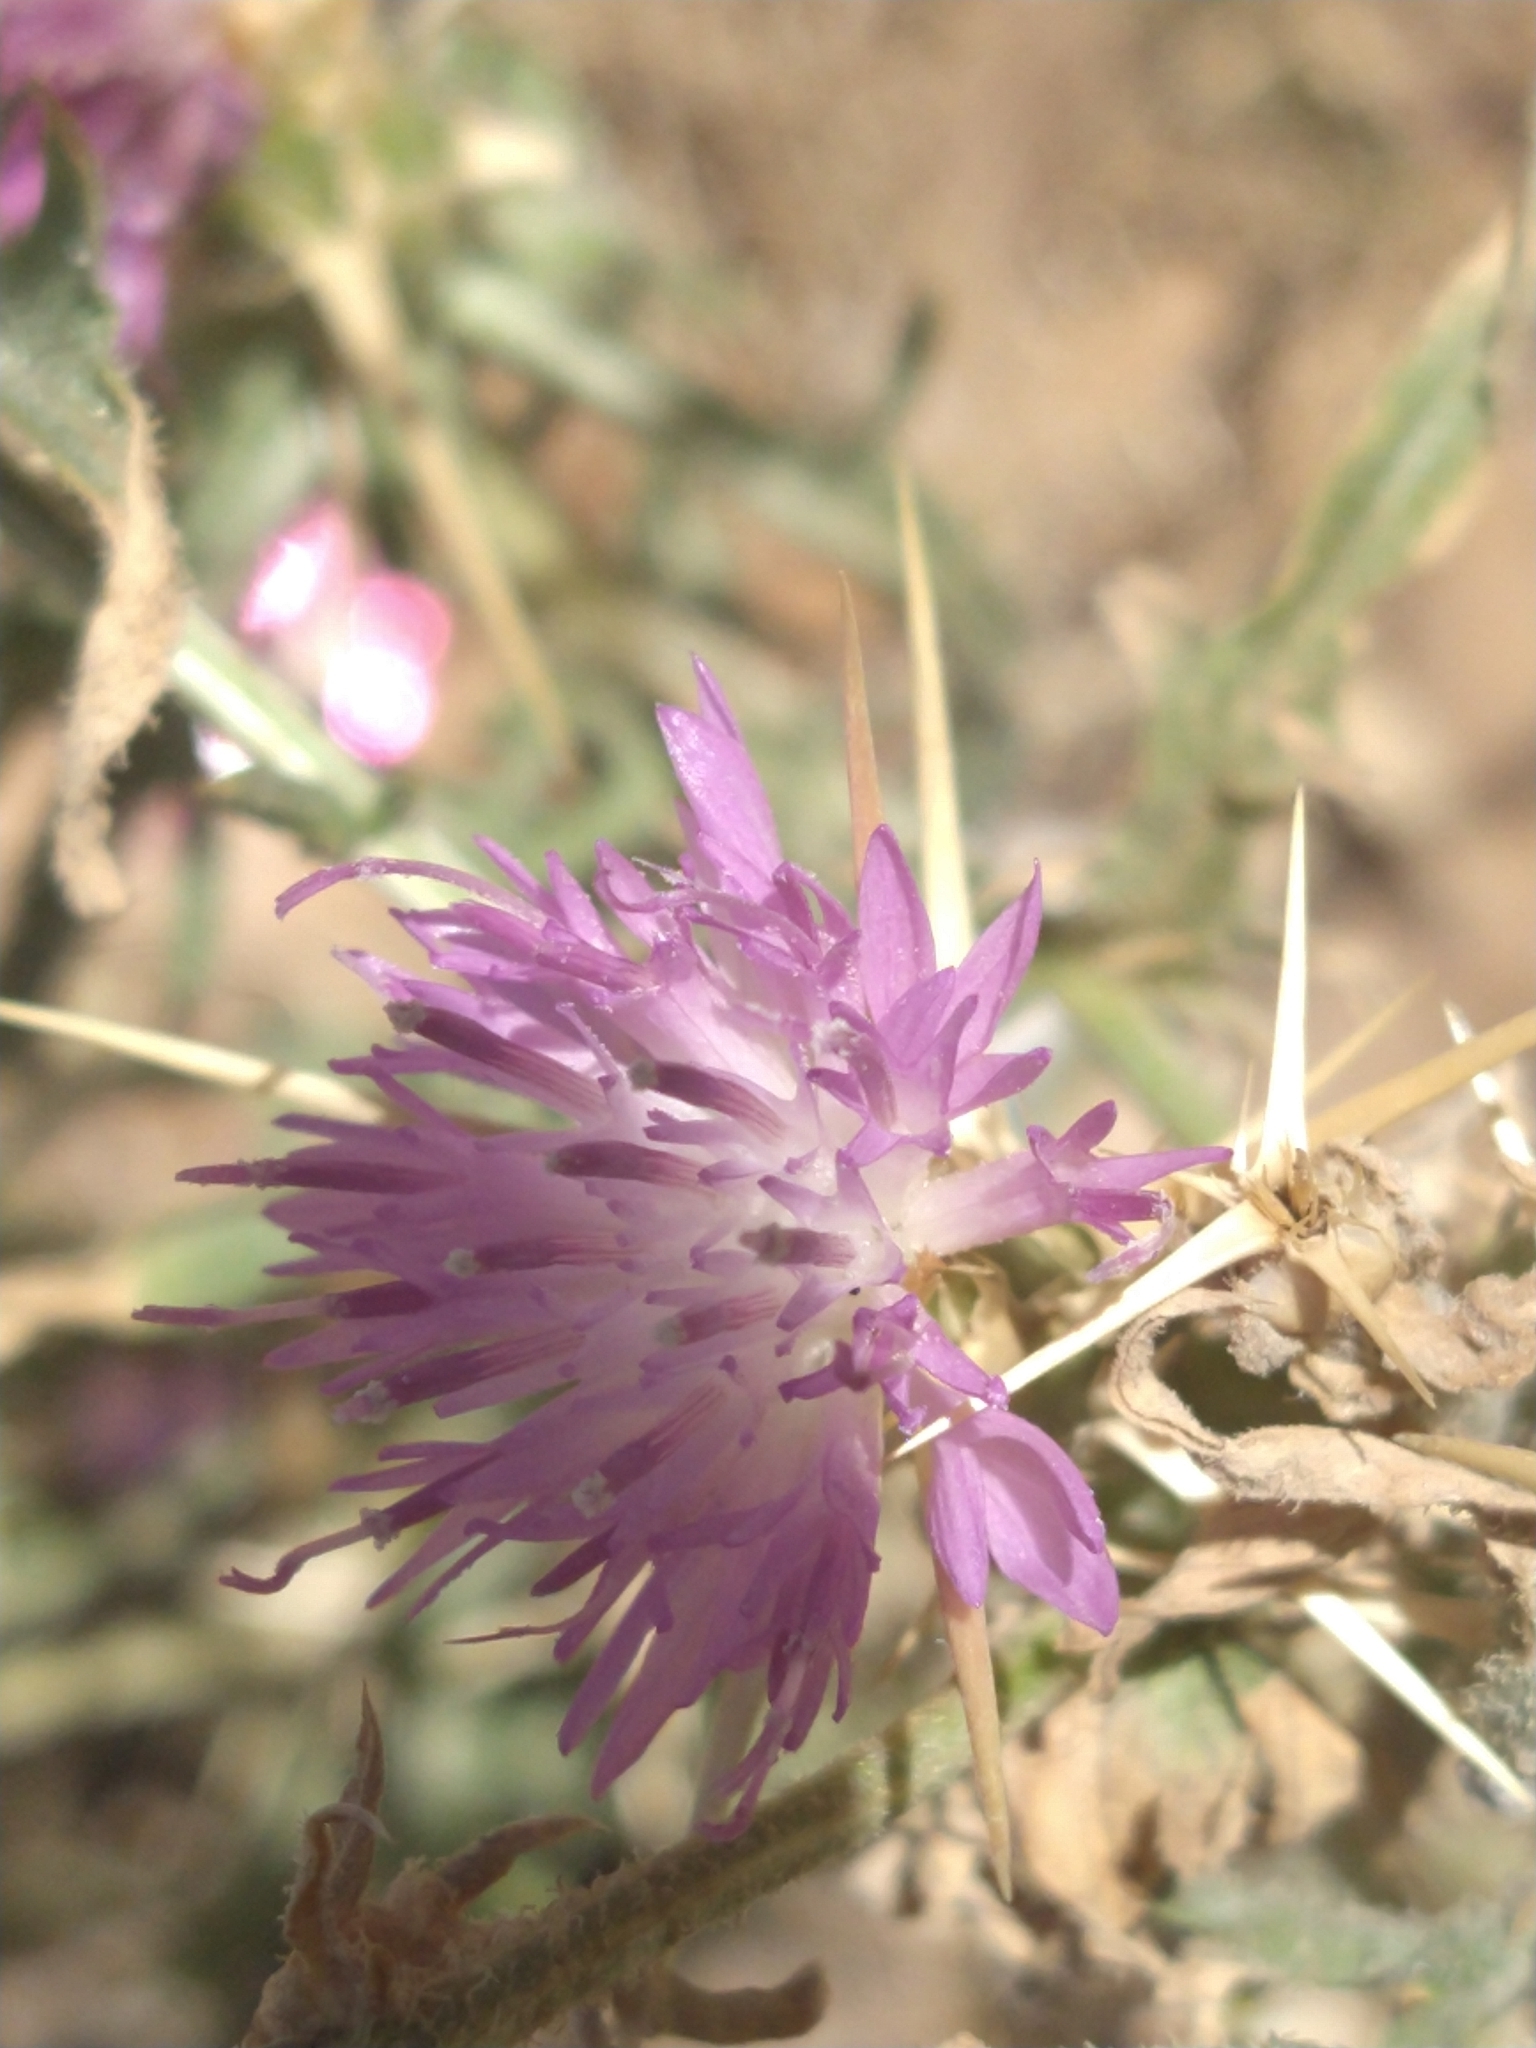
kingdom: Plantae
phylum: Tracheophyta
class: Magnoliopsida
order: Asterales
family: Asteraceae
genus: Centaurea
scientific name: Centaurea calcitrapa
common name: Red star-thistle
